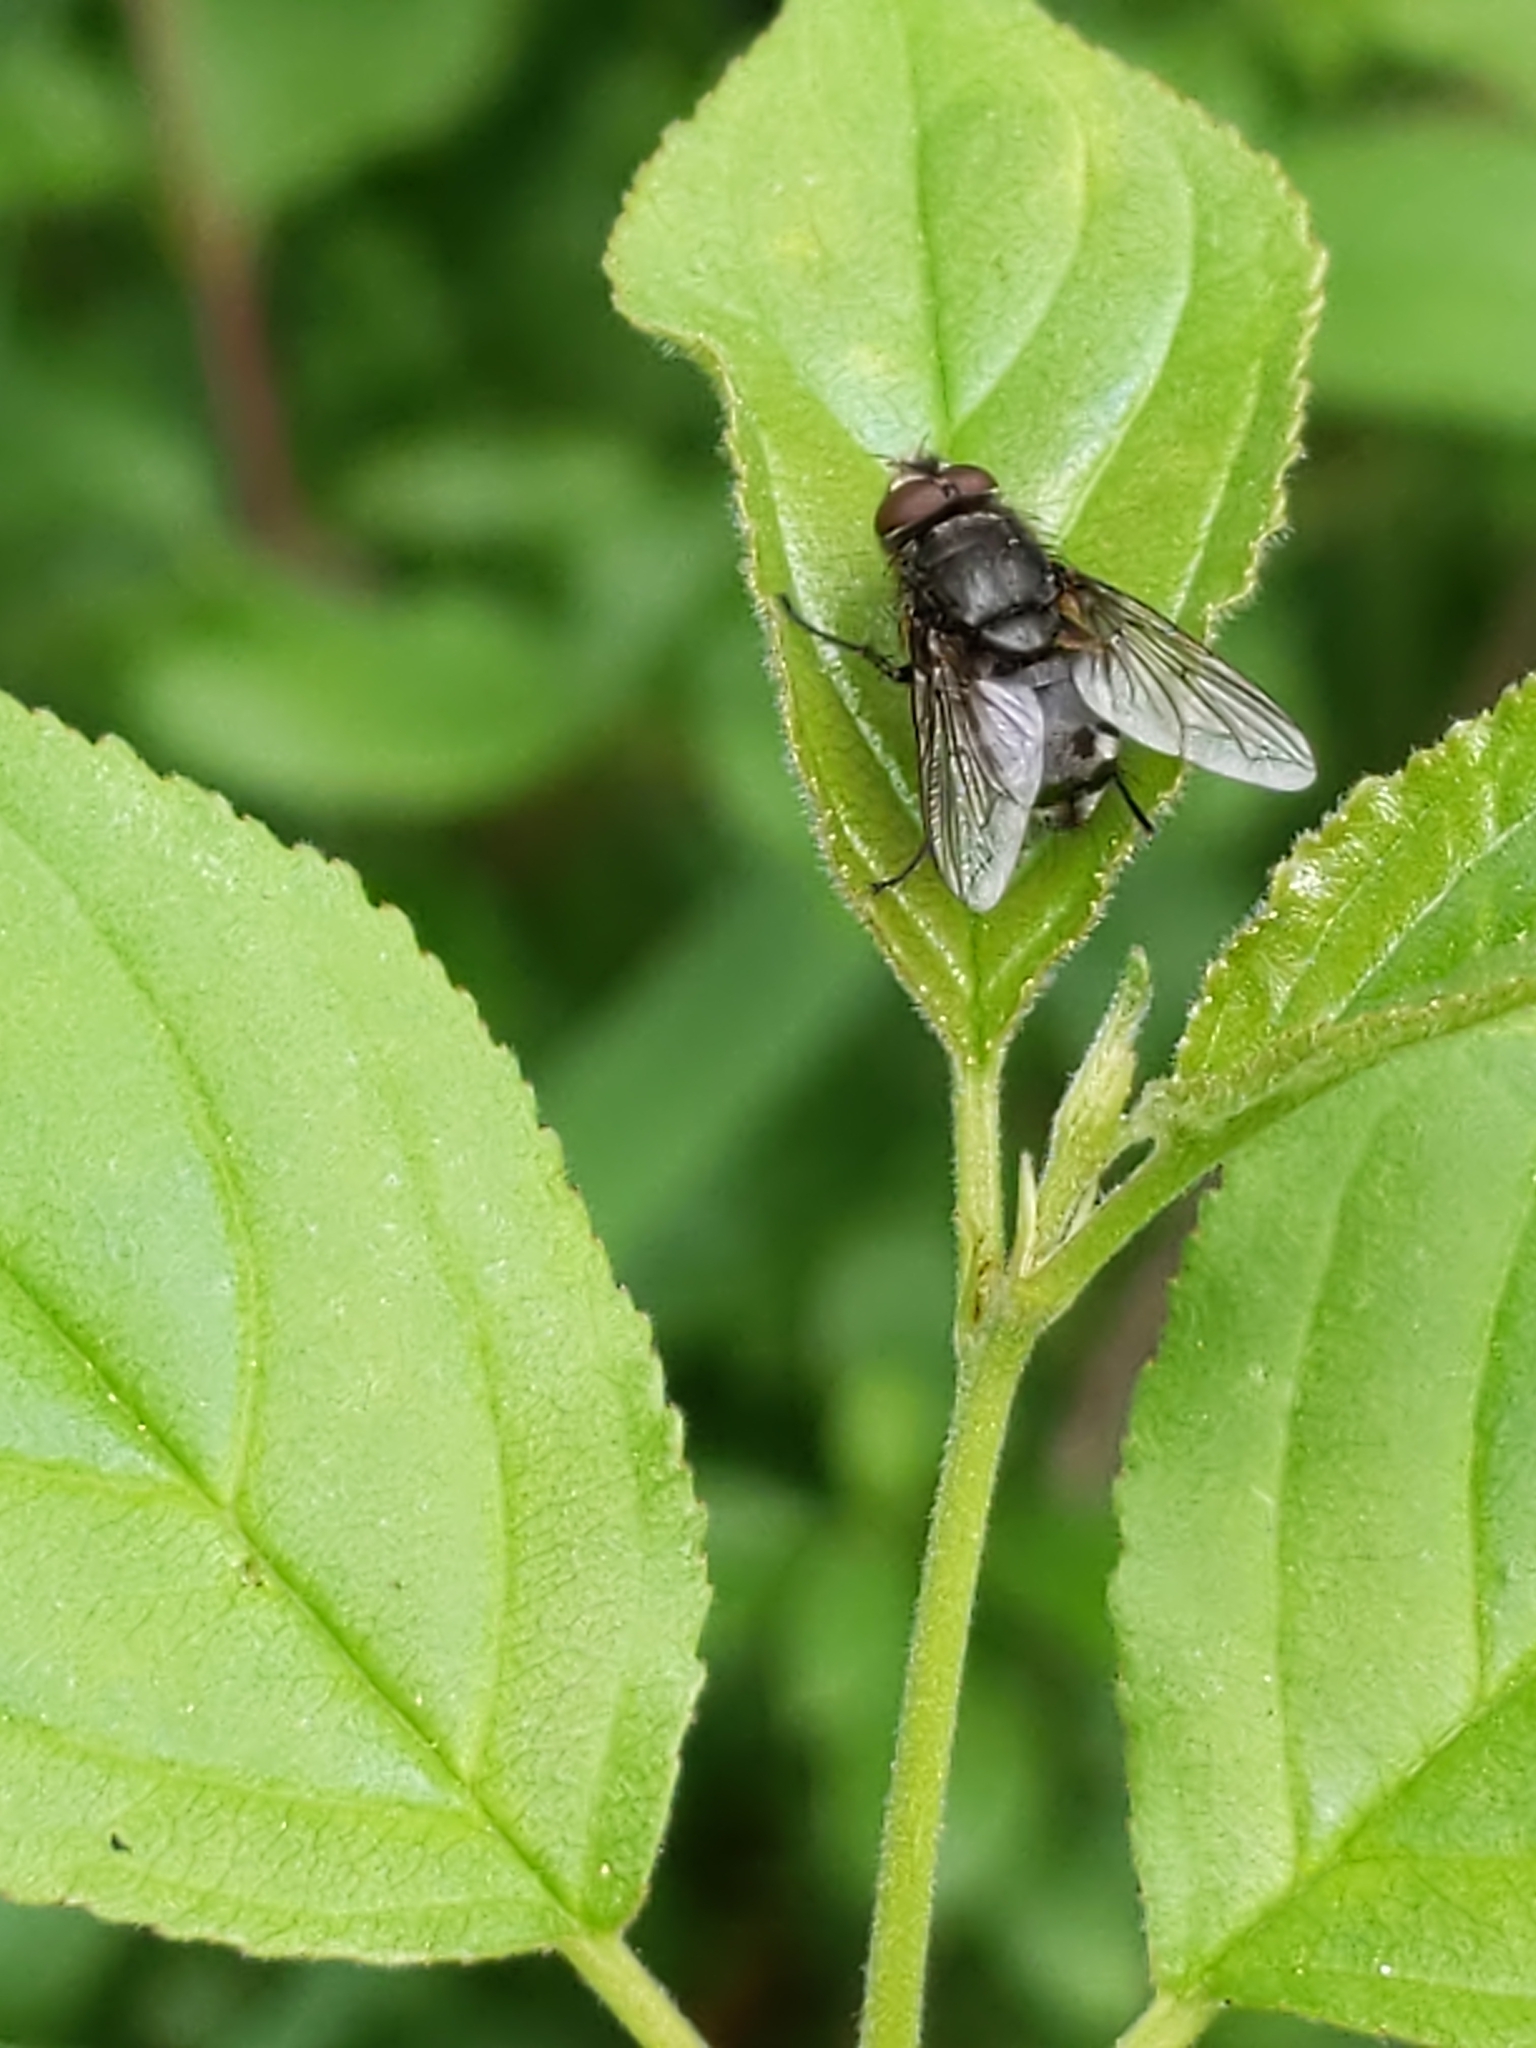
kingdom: Animalia
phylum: Arthropoda
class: Insecta
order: Diptera
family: Polleniidae
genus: Pollenia
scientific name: Pollenia
